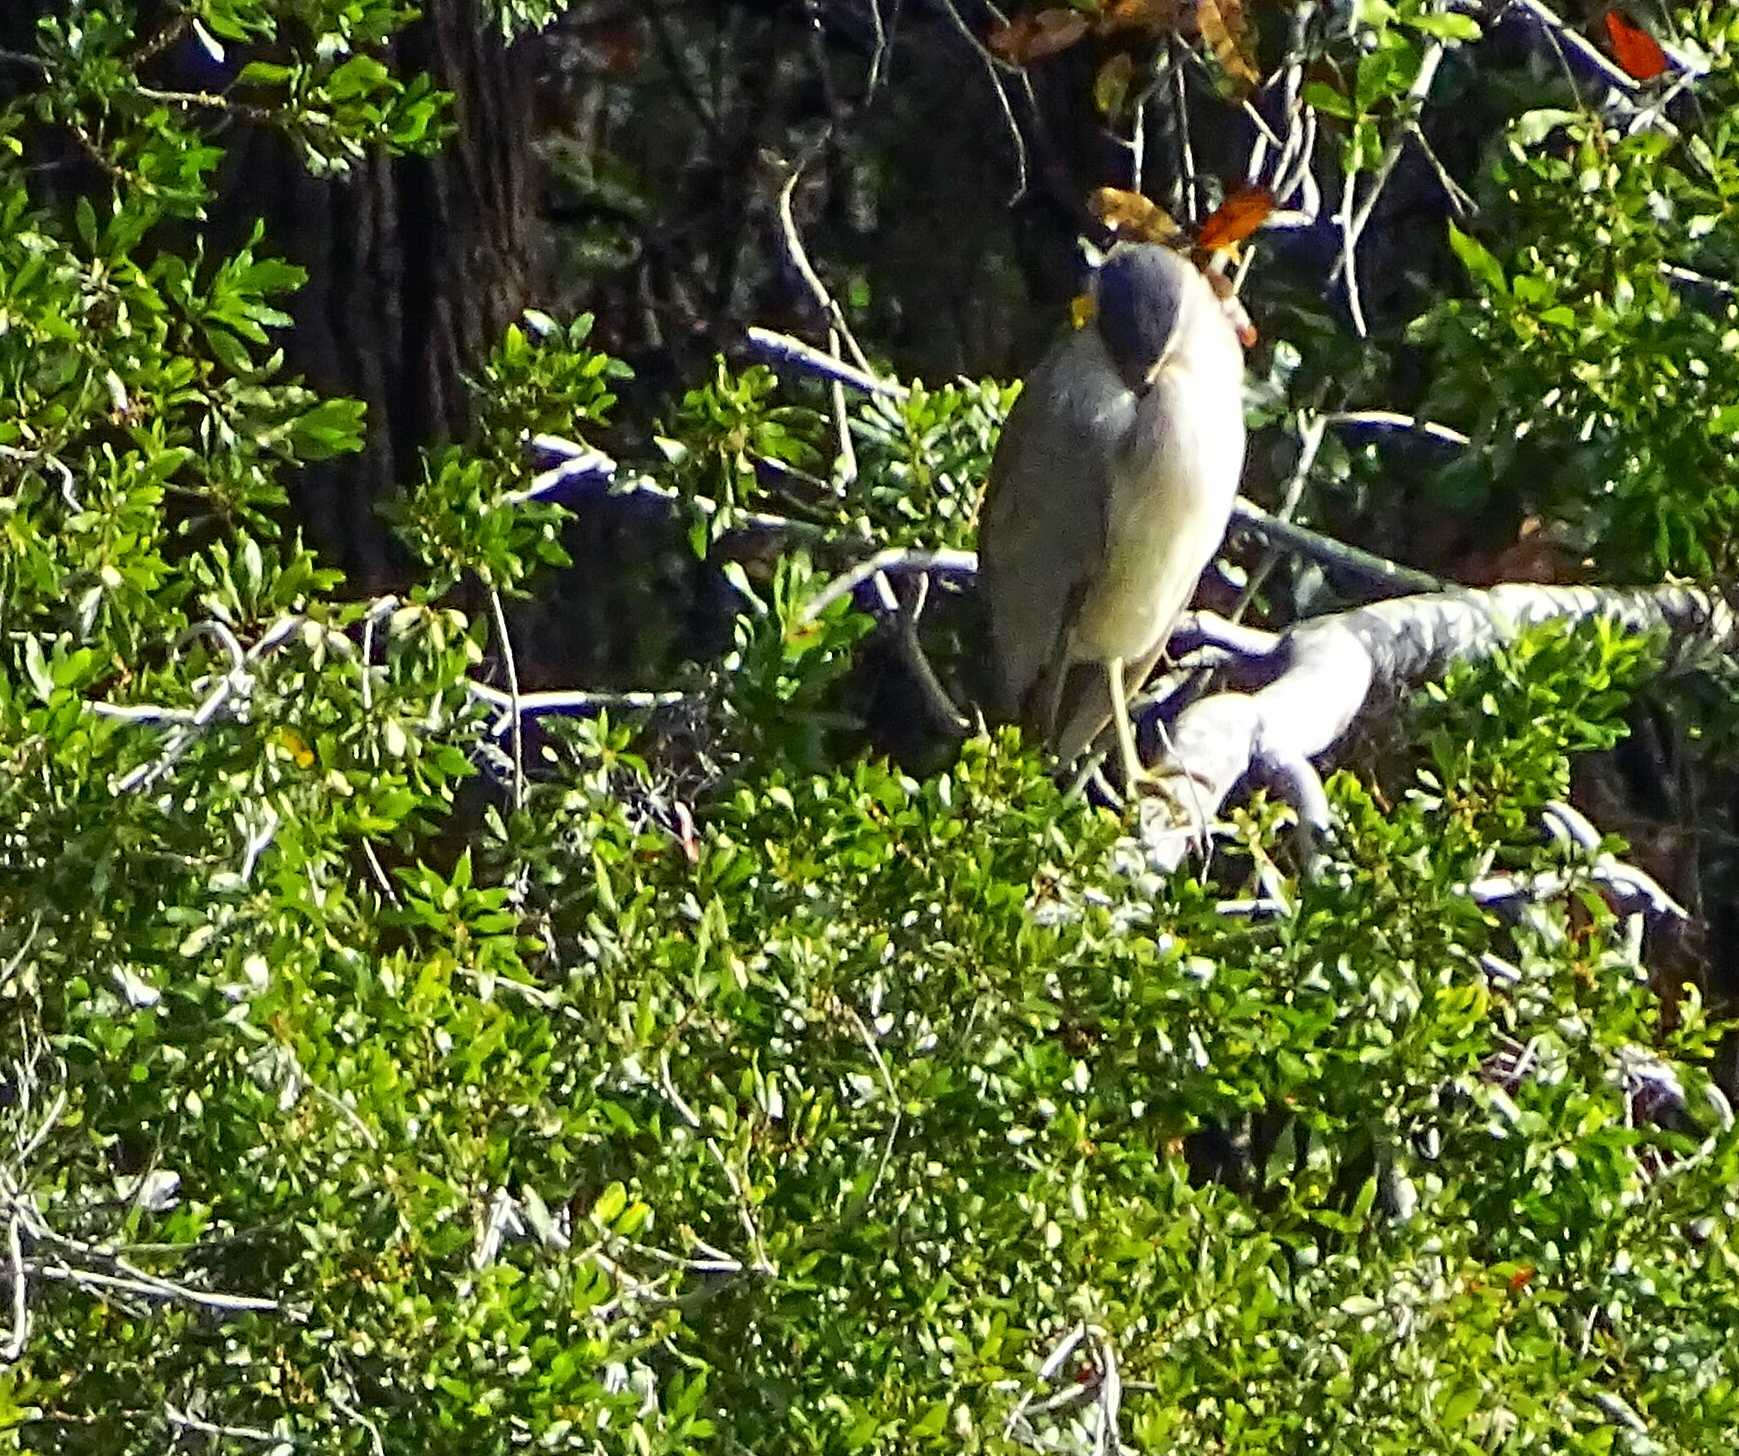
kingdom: Animalia
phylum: Chordata
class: Aves
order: Pelecaniformes
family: Ardeidae
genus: Nycticorax
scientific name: Nycticorax nycticorax
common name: Black-crowned night heron
